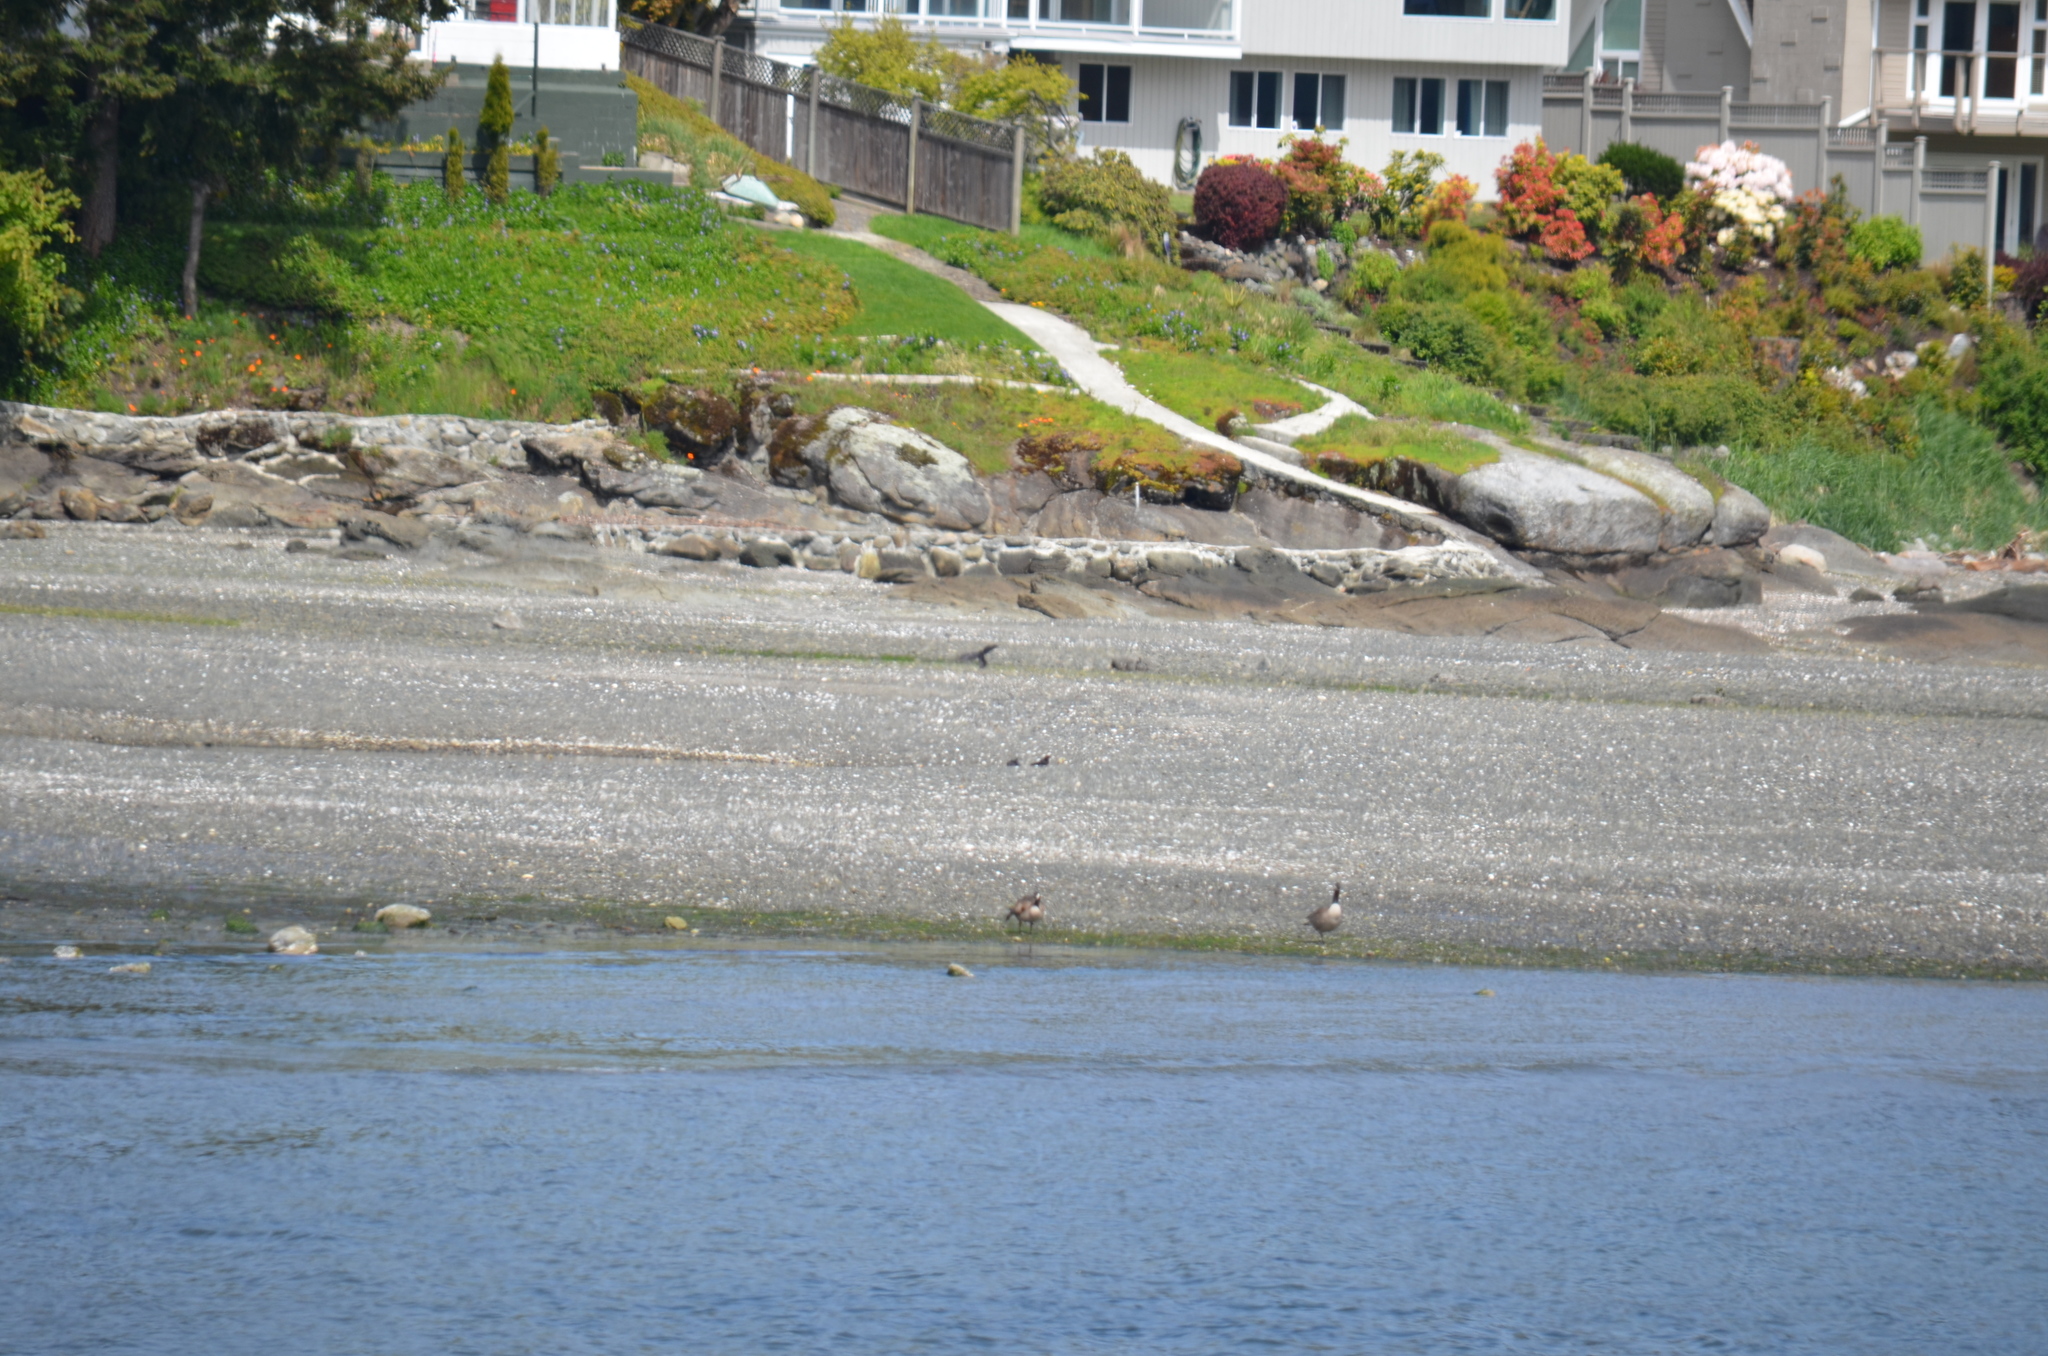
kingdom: Animalia
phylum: Chordata
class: Aves
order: Anseriformes
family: Anatidae
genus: Branta
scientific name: Branta canadensis
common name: Canada goose
